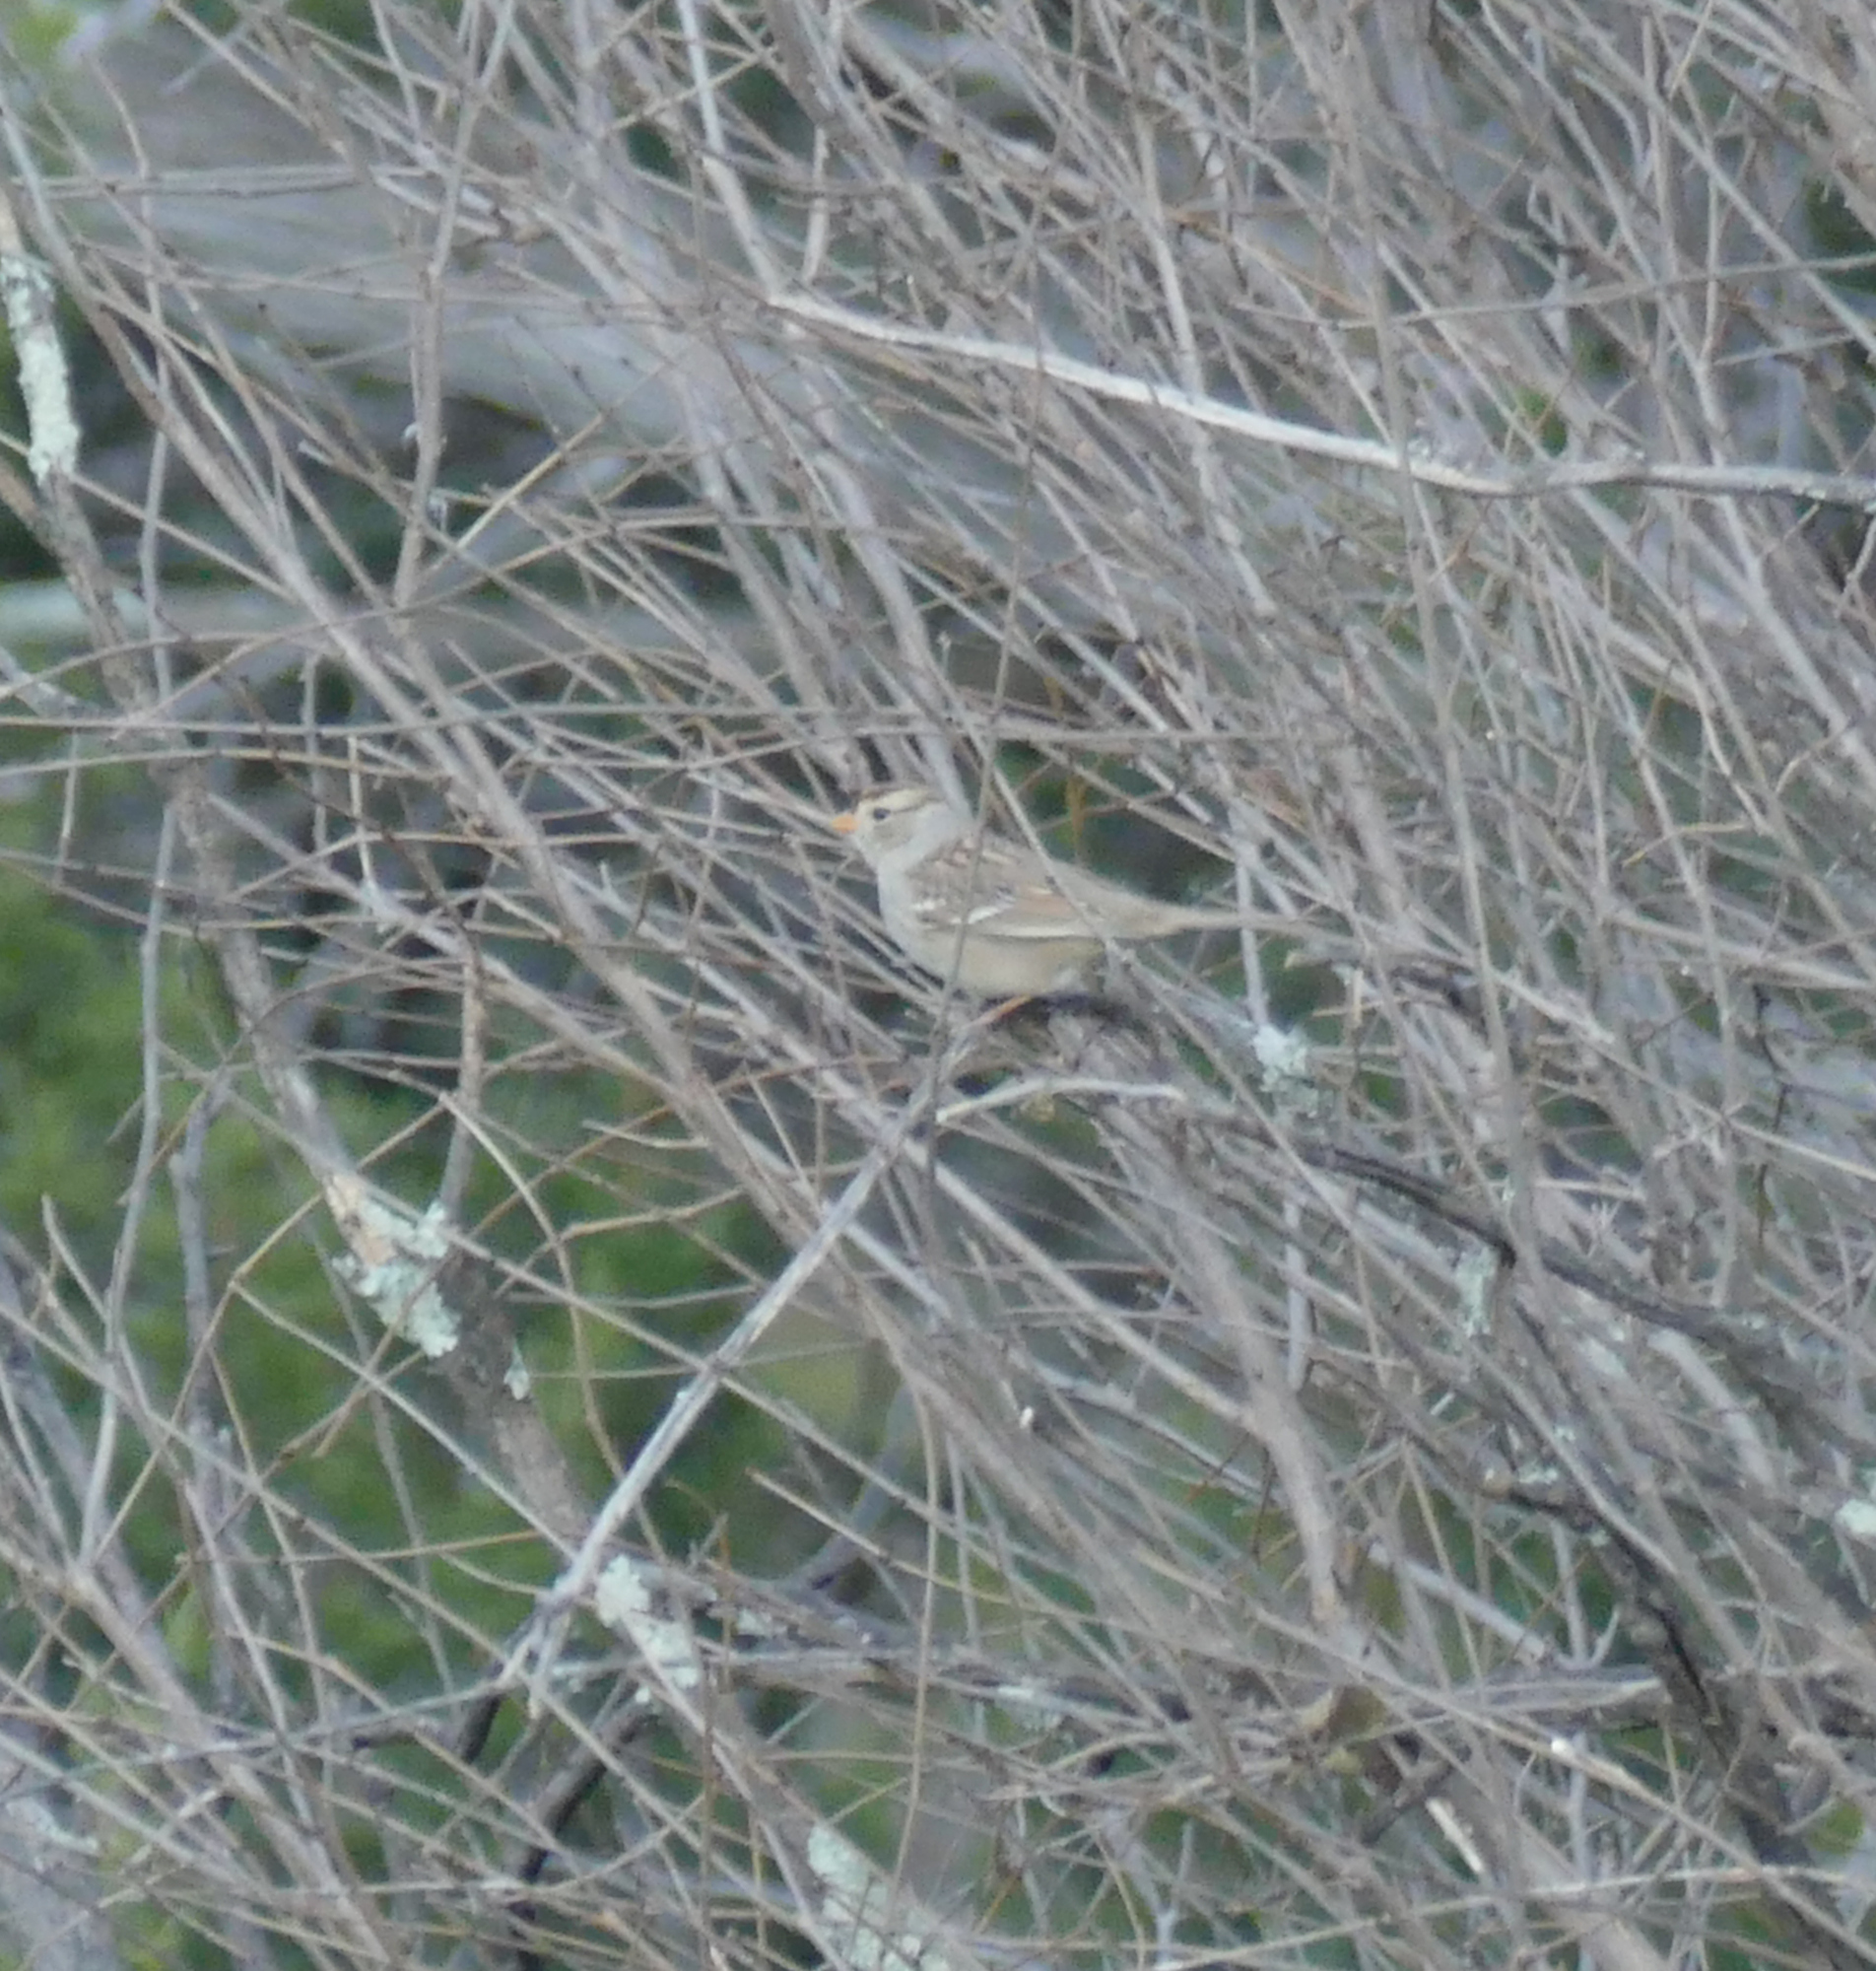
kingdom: Animalia
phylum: Chordata
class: Aves
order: Passeriformes
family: Passerellidae
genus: Zonotrichia
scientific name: Zonotrichia leucophrys
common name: White-crowned sparrow
